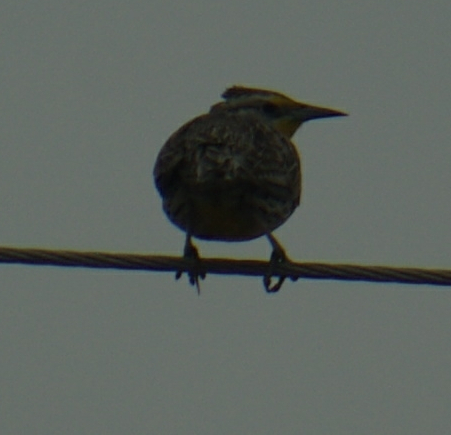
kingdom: Animalia
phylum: Chordata
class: Aves
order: Passeriformes
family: Icteridae
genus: Sturnella
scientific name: Sturnella neglecta
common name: Western meadowlark
